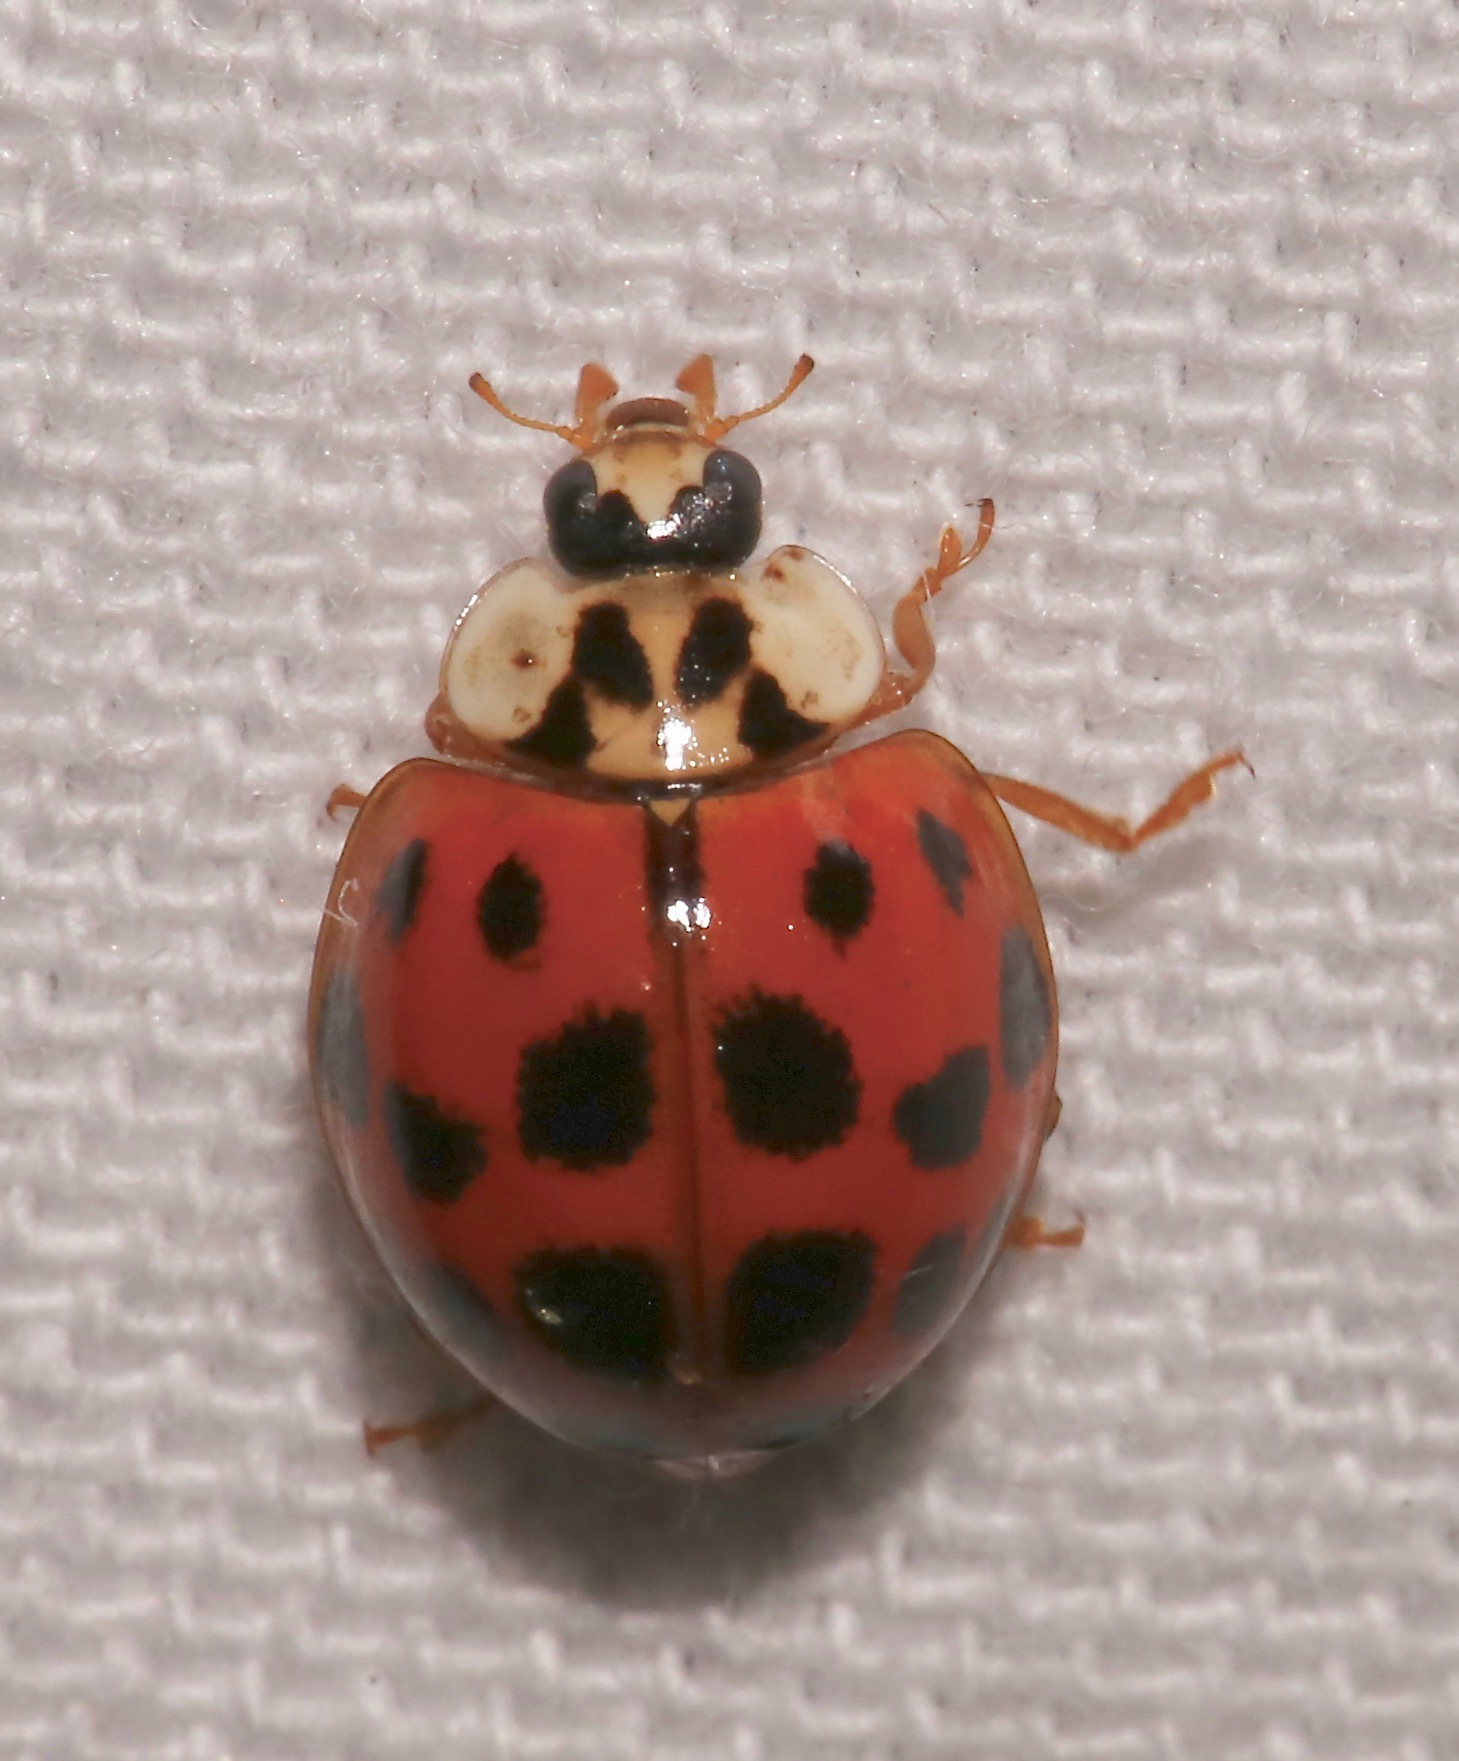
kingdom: Animalia
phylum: Arthropoda
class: Insecta
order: Coleoptera
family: Coccinellidae
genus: Harmonia
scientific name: Harmonia axyridis
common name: Harlequin ladybird
